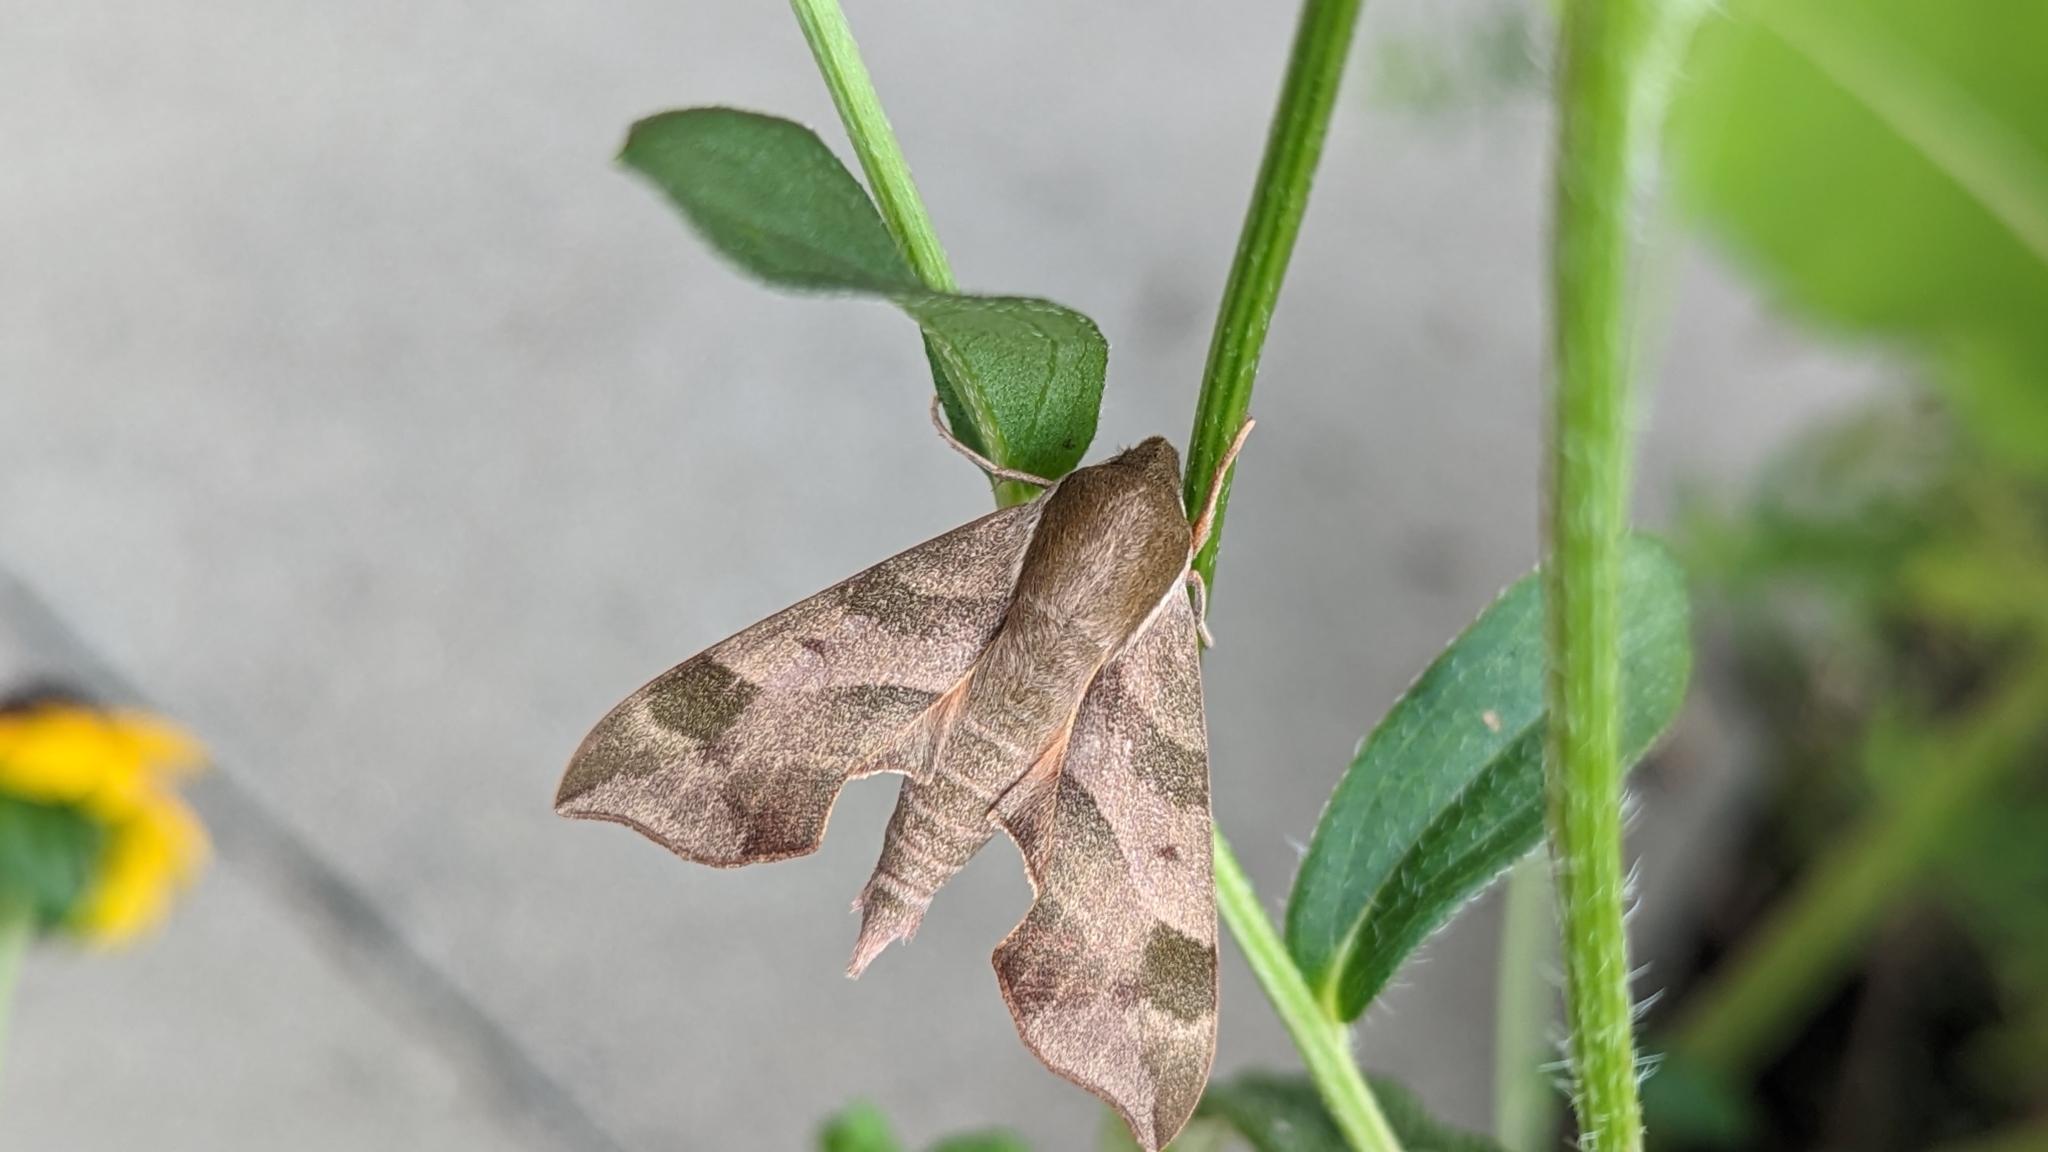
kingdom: Animalia
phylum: Arthropoda
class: Insecta
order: Lepidoptera
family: Sphingidae
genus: Darapsa
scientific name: Darapsa myron
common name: Hog sphinx
